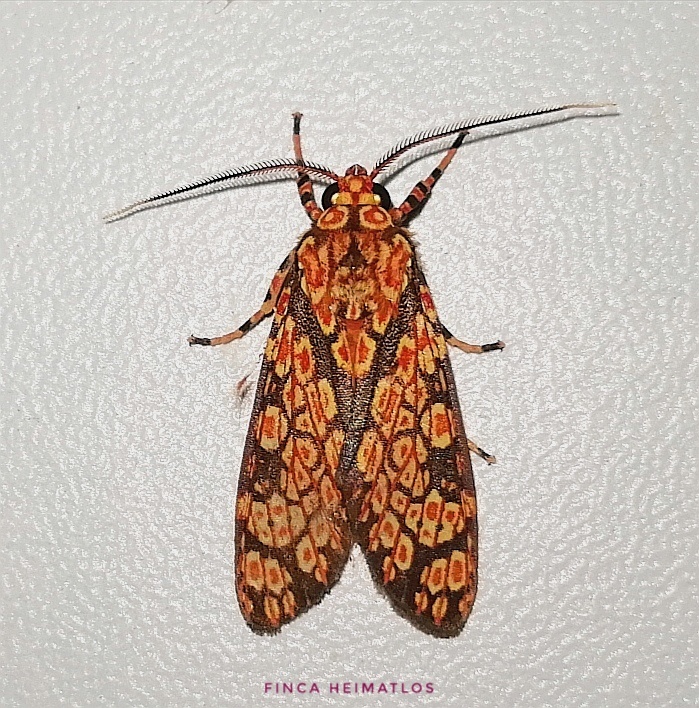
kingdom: Animalia
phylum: Arthropoda
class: Insecta
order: Lepidoptera
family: Erebidae
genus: Cresera
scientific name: Cresera optimus
